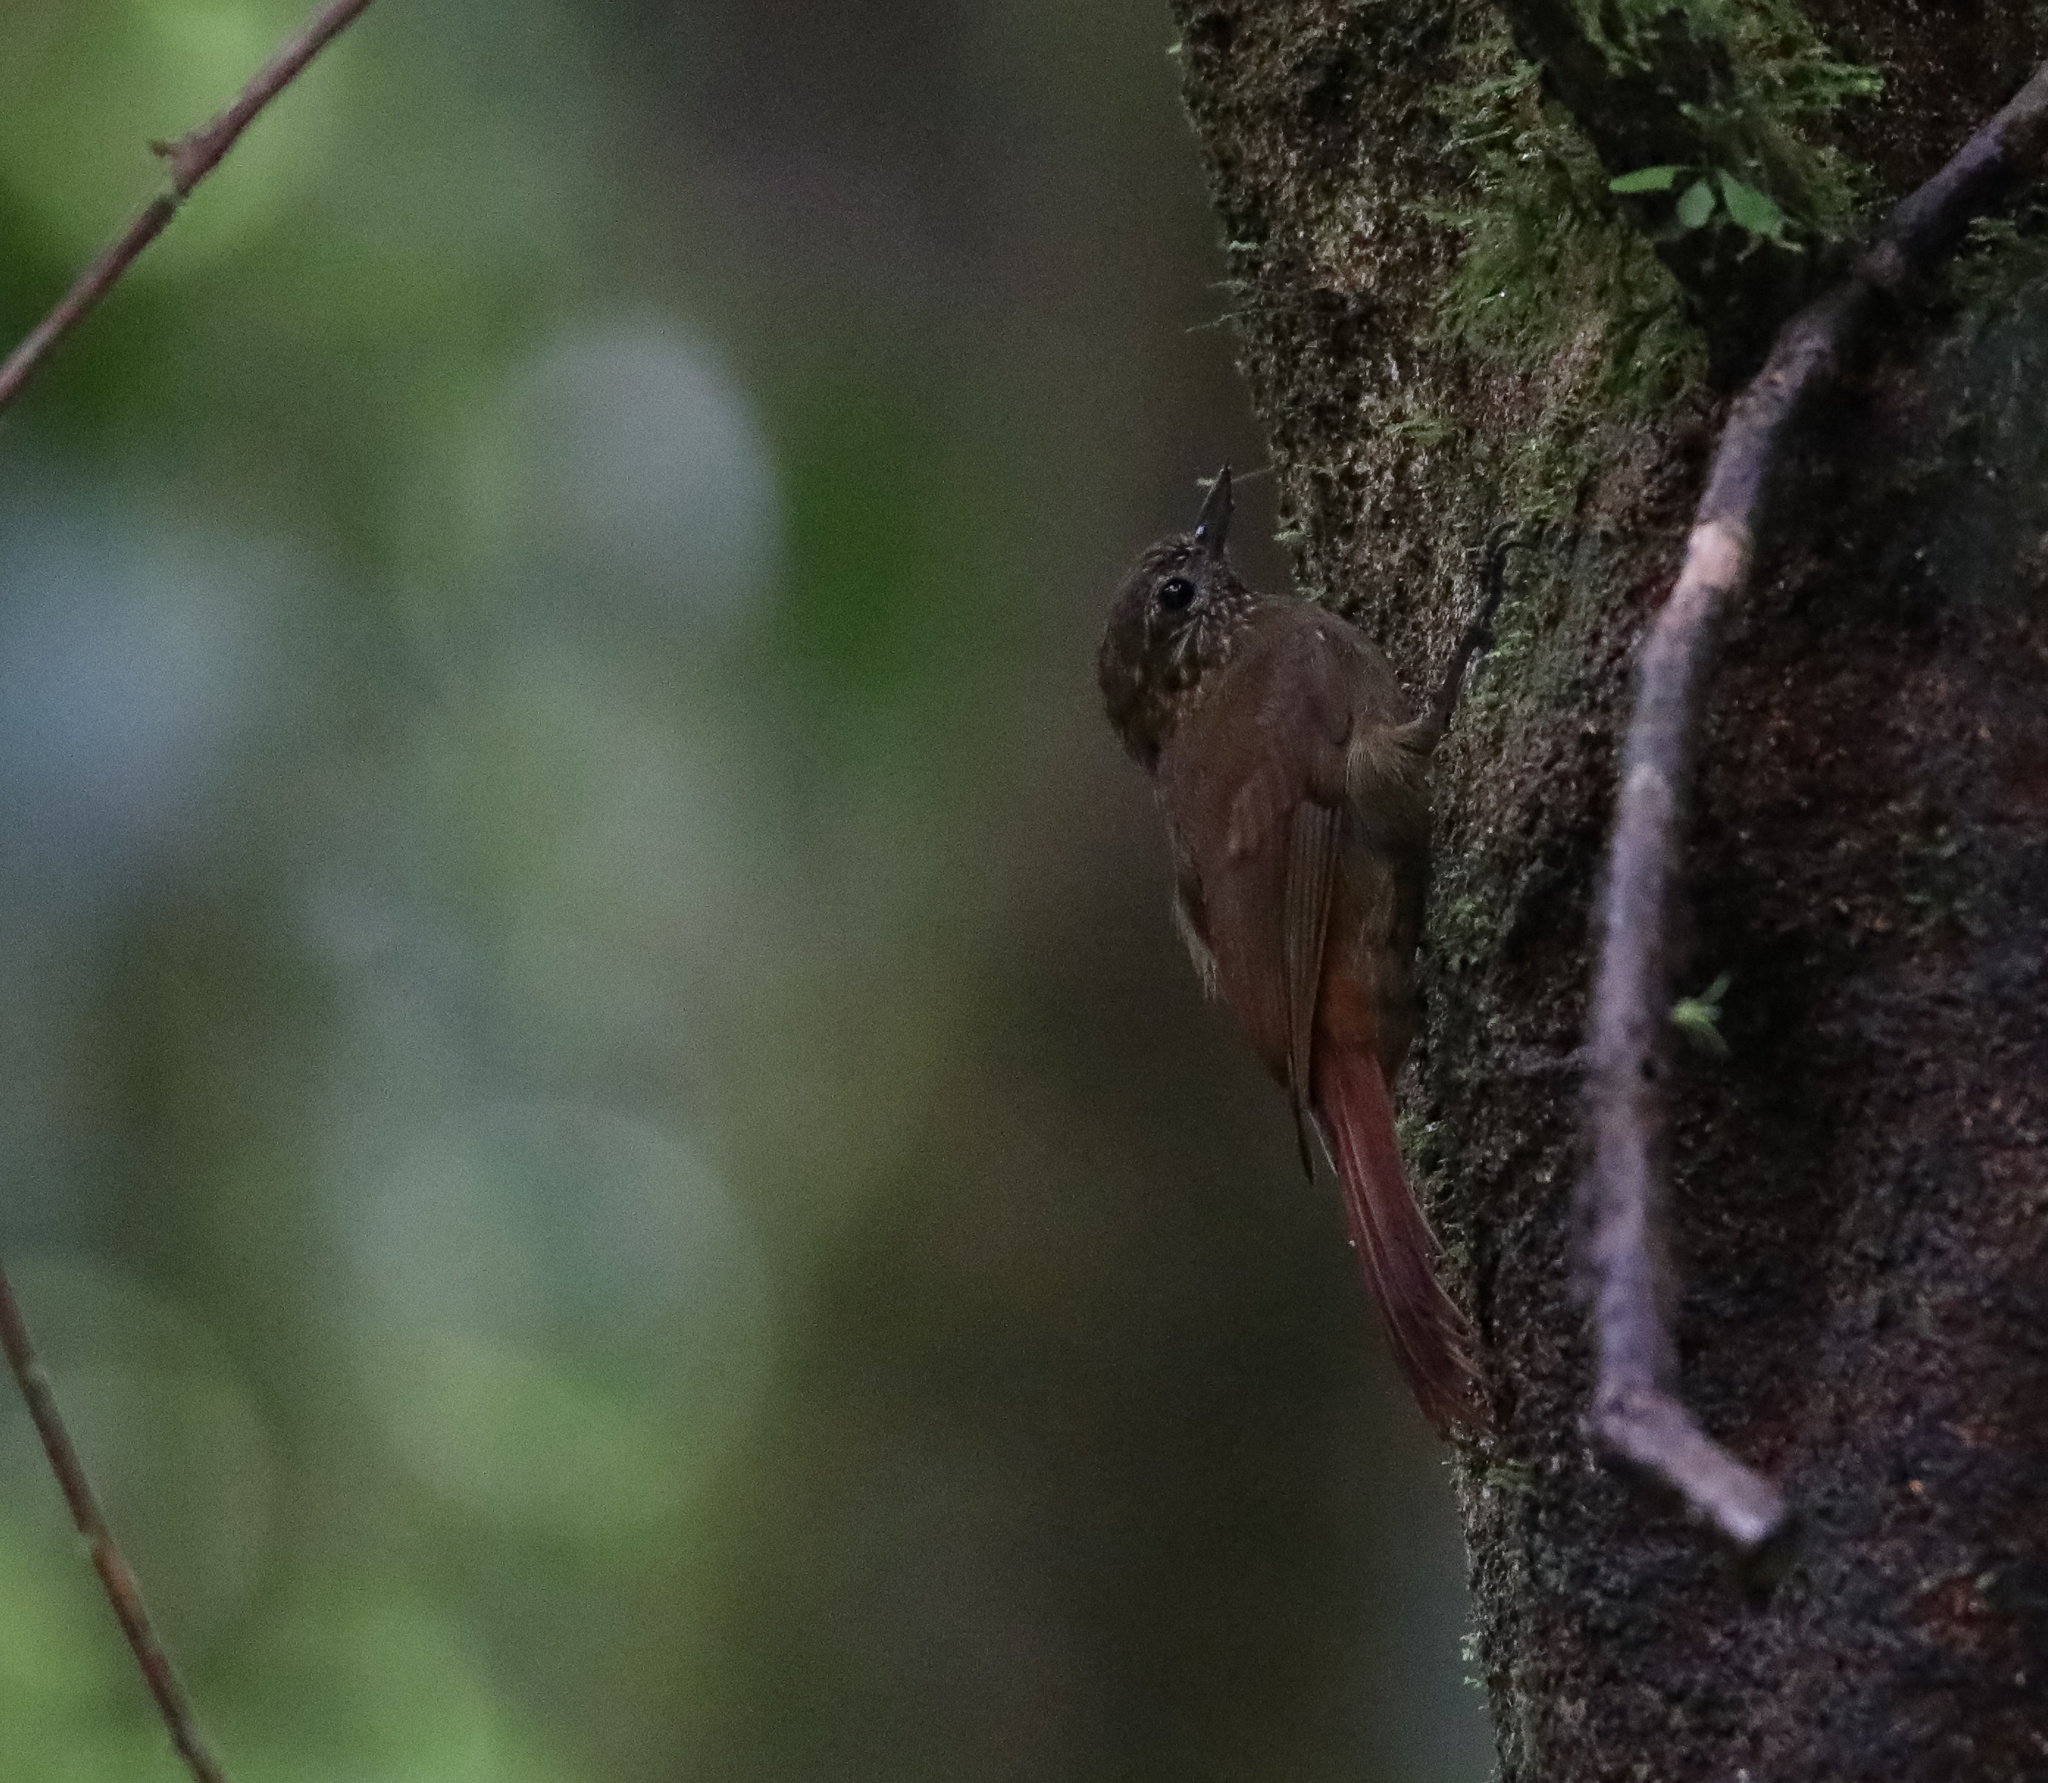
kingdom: Animalia
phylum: Chordata
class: Aves
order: Passeriformes
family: Furnariidae
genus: Glyphorynchus
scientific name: Glyphorynchus spirurus
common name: Wedge-billed woodcreeper
